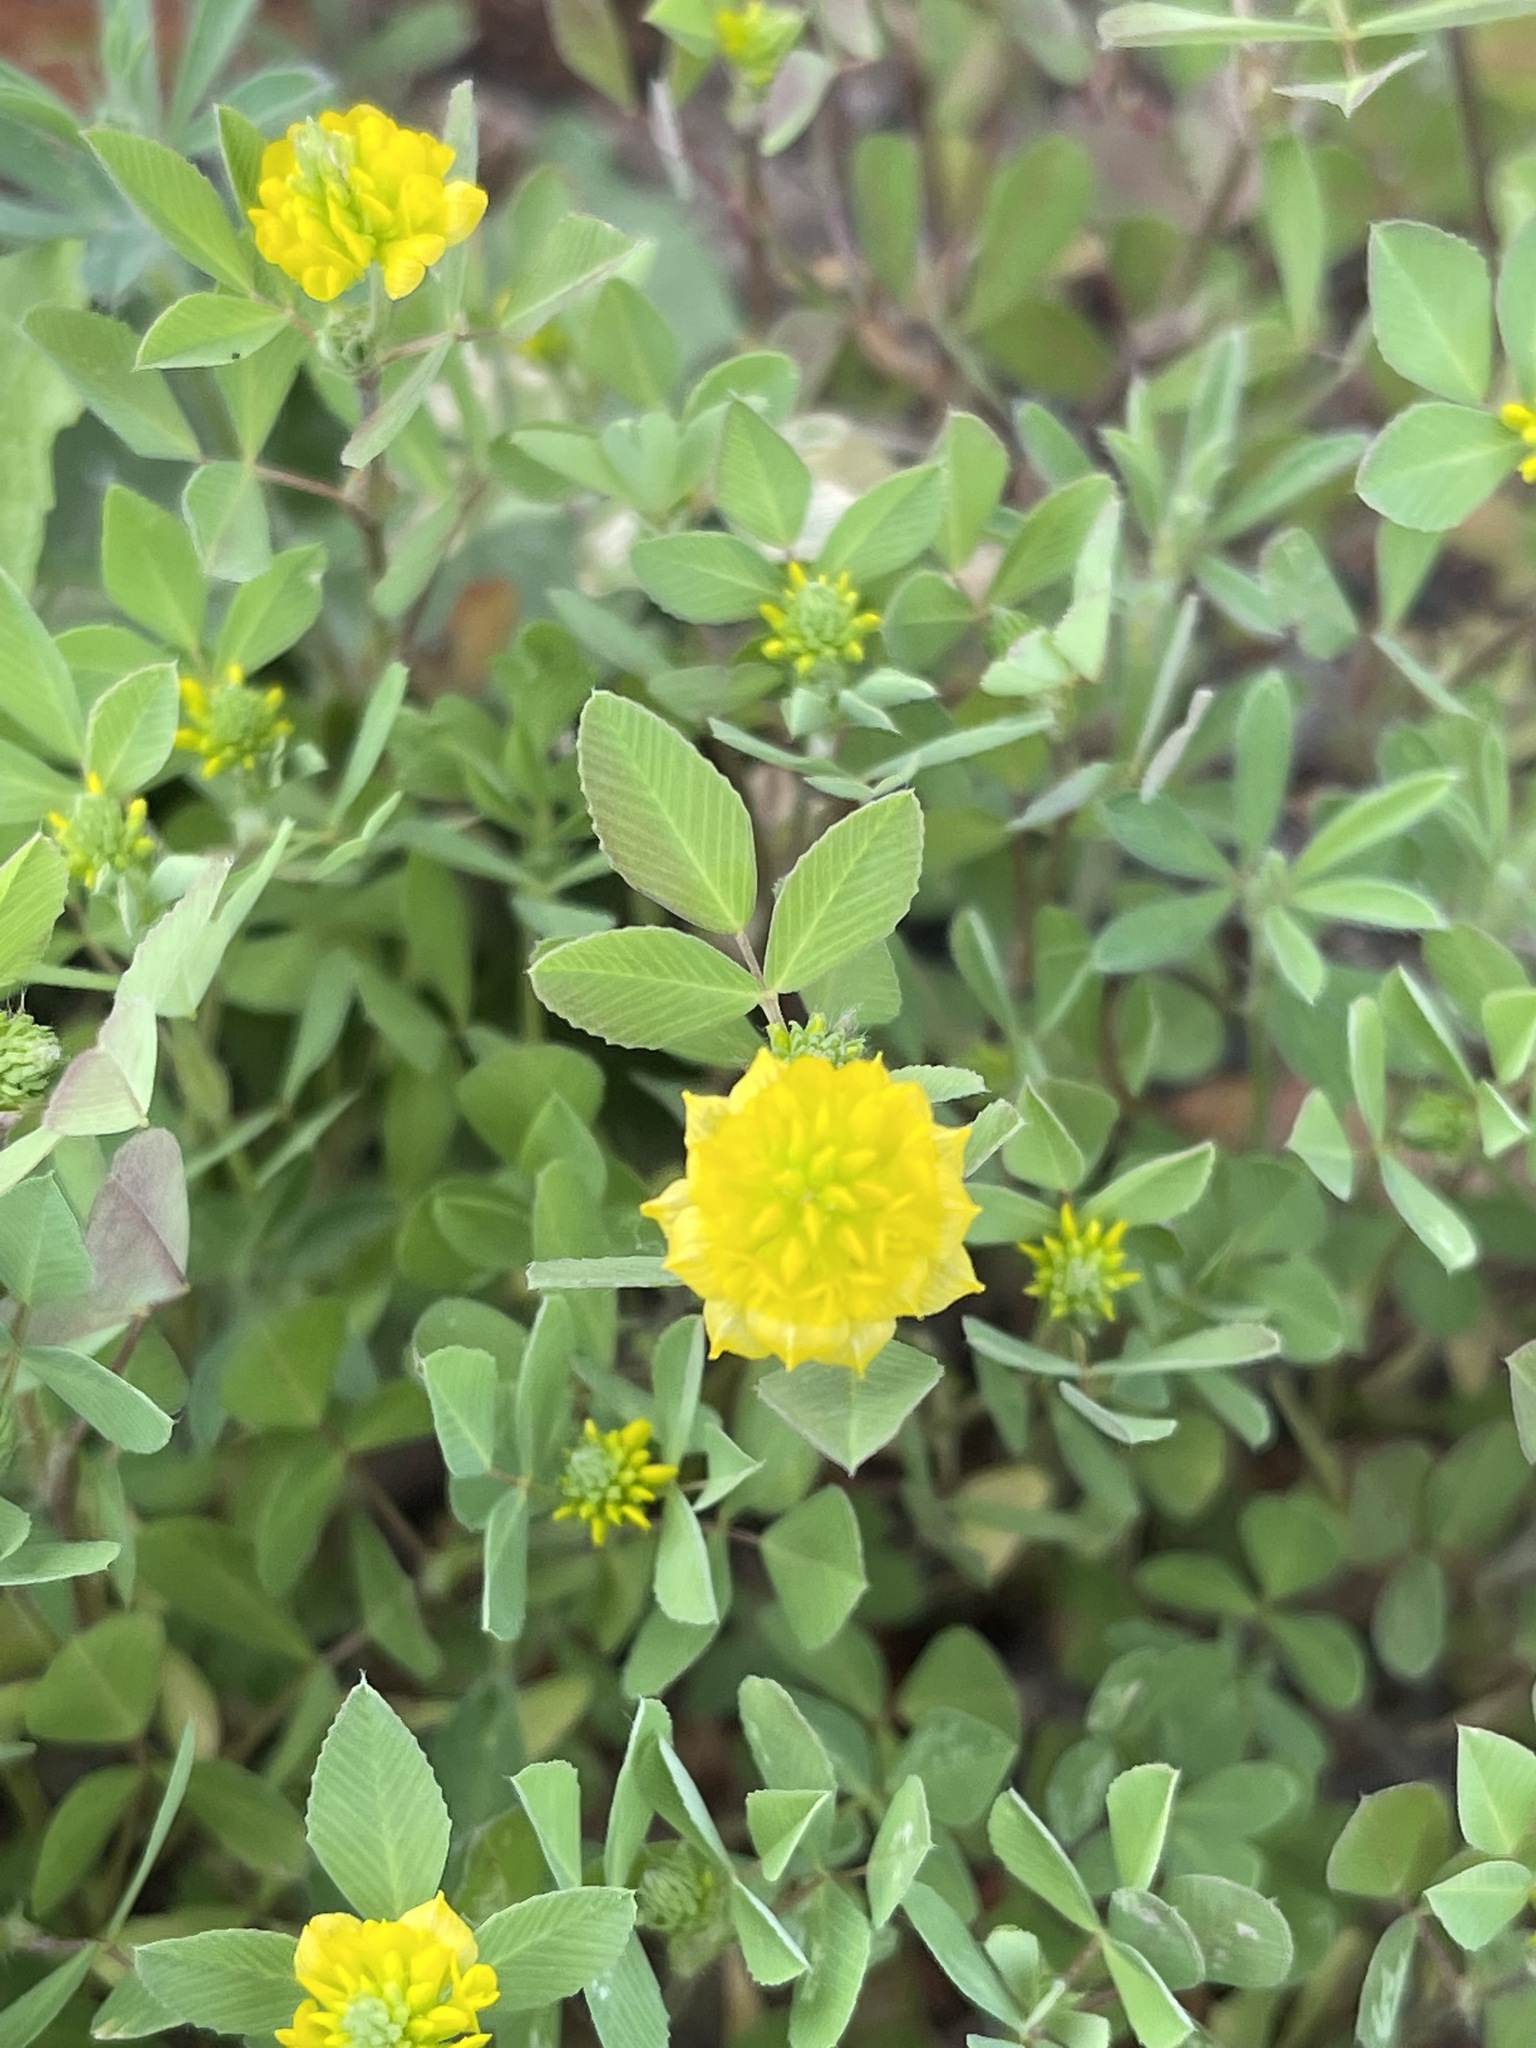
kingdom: Plantae
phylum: Tracheophyta
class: Magnoliopsida
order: Fabales
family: Fabaceae
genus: Trifolium
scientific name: Trifolium campestre
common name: Field clover
